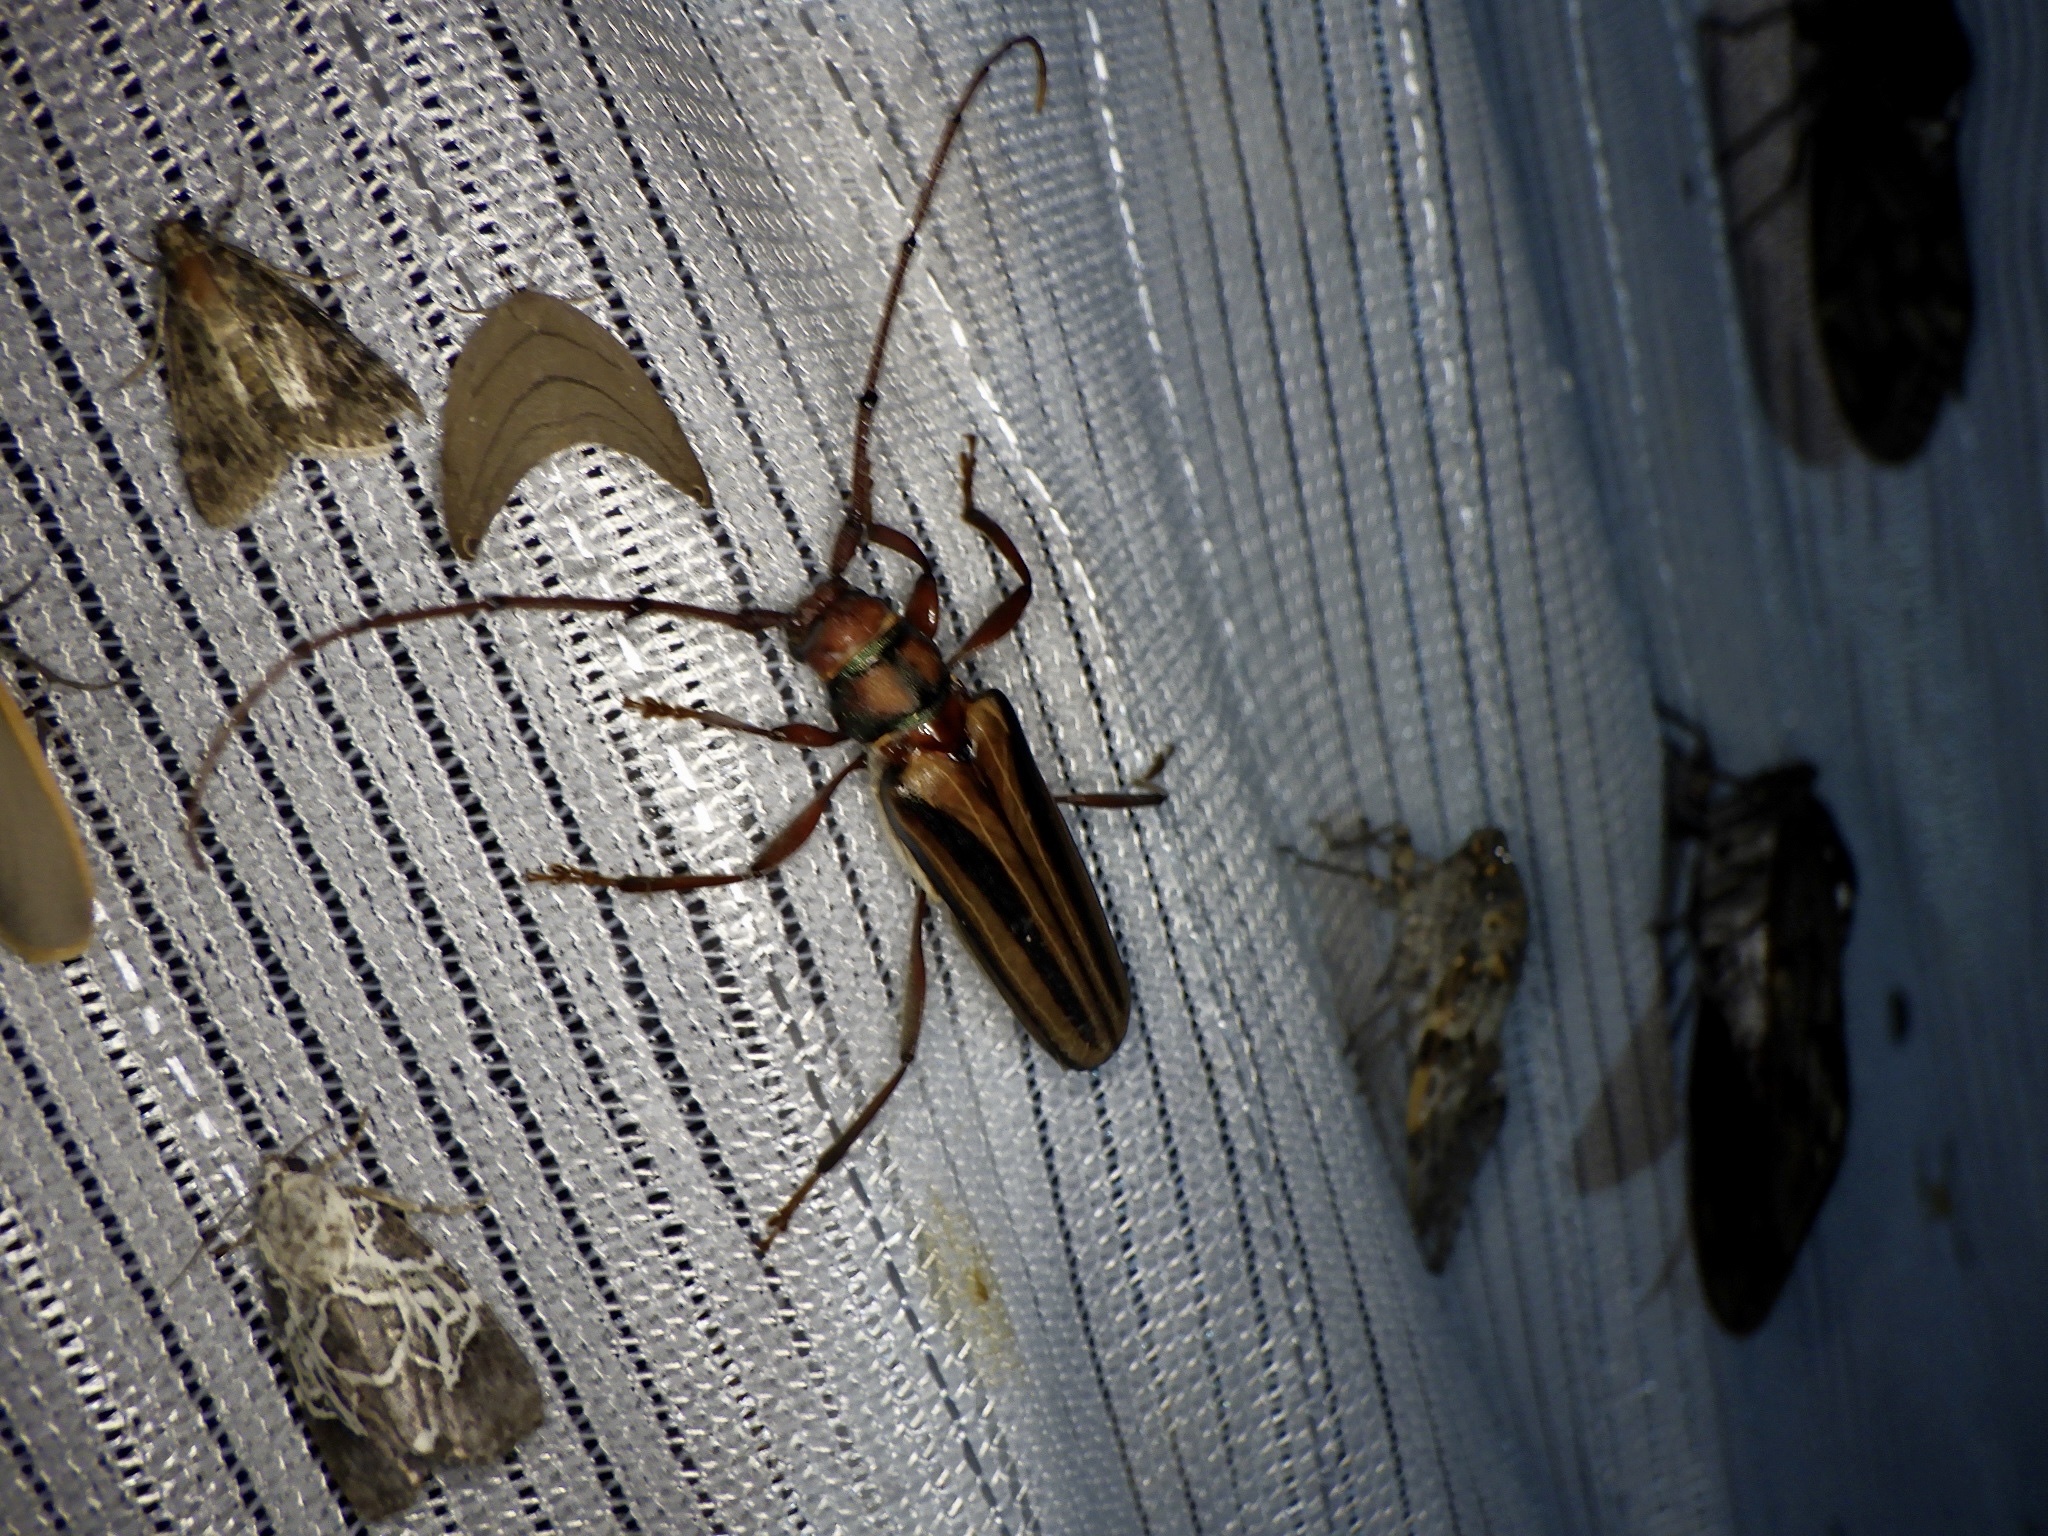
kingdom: Animalia
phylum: Arthropoda
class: Insecta
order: Coleoptera
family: Cerambycidae
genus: Xystrocera
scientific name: Xystrocera globosa
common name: Peach-tree longhorn
